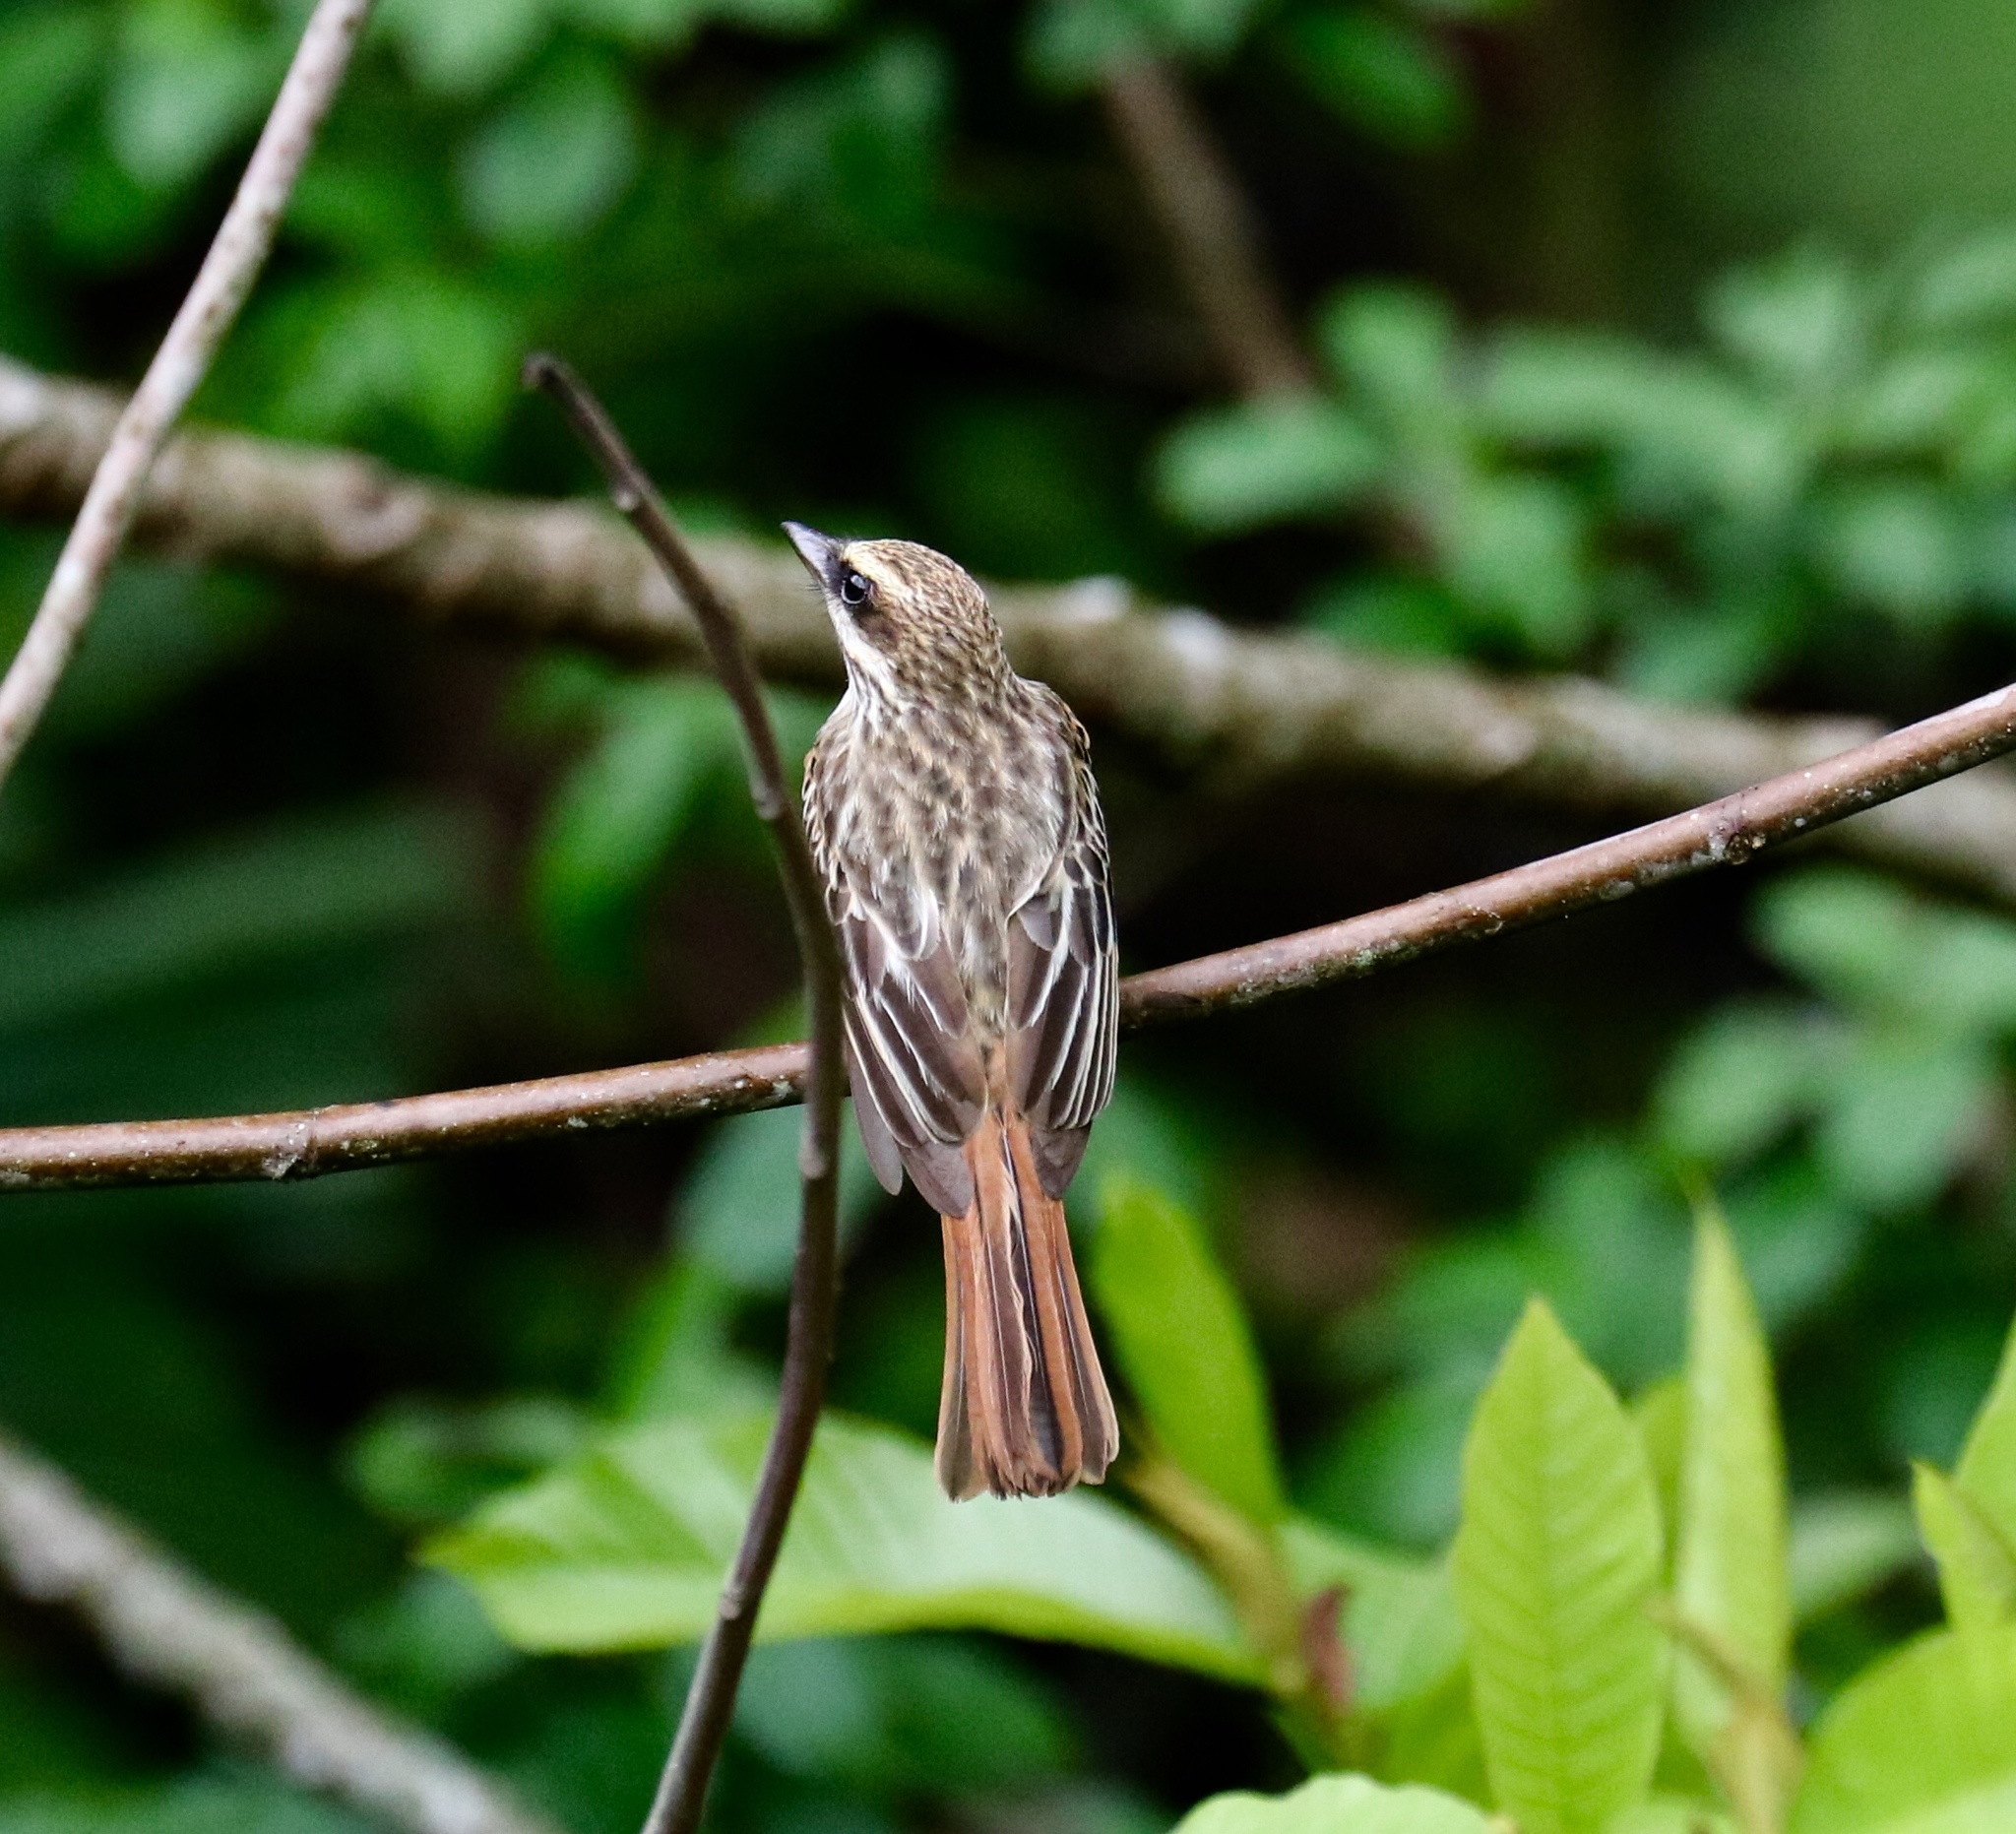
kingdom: Animalia
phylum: Chordata
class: Aves
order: Passeriformes
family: Tyrannidae
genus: Myiodynastes
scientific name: Myiodynastes maculatus
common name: Streaked flycatcher
